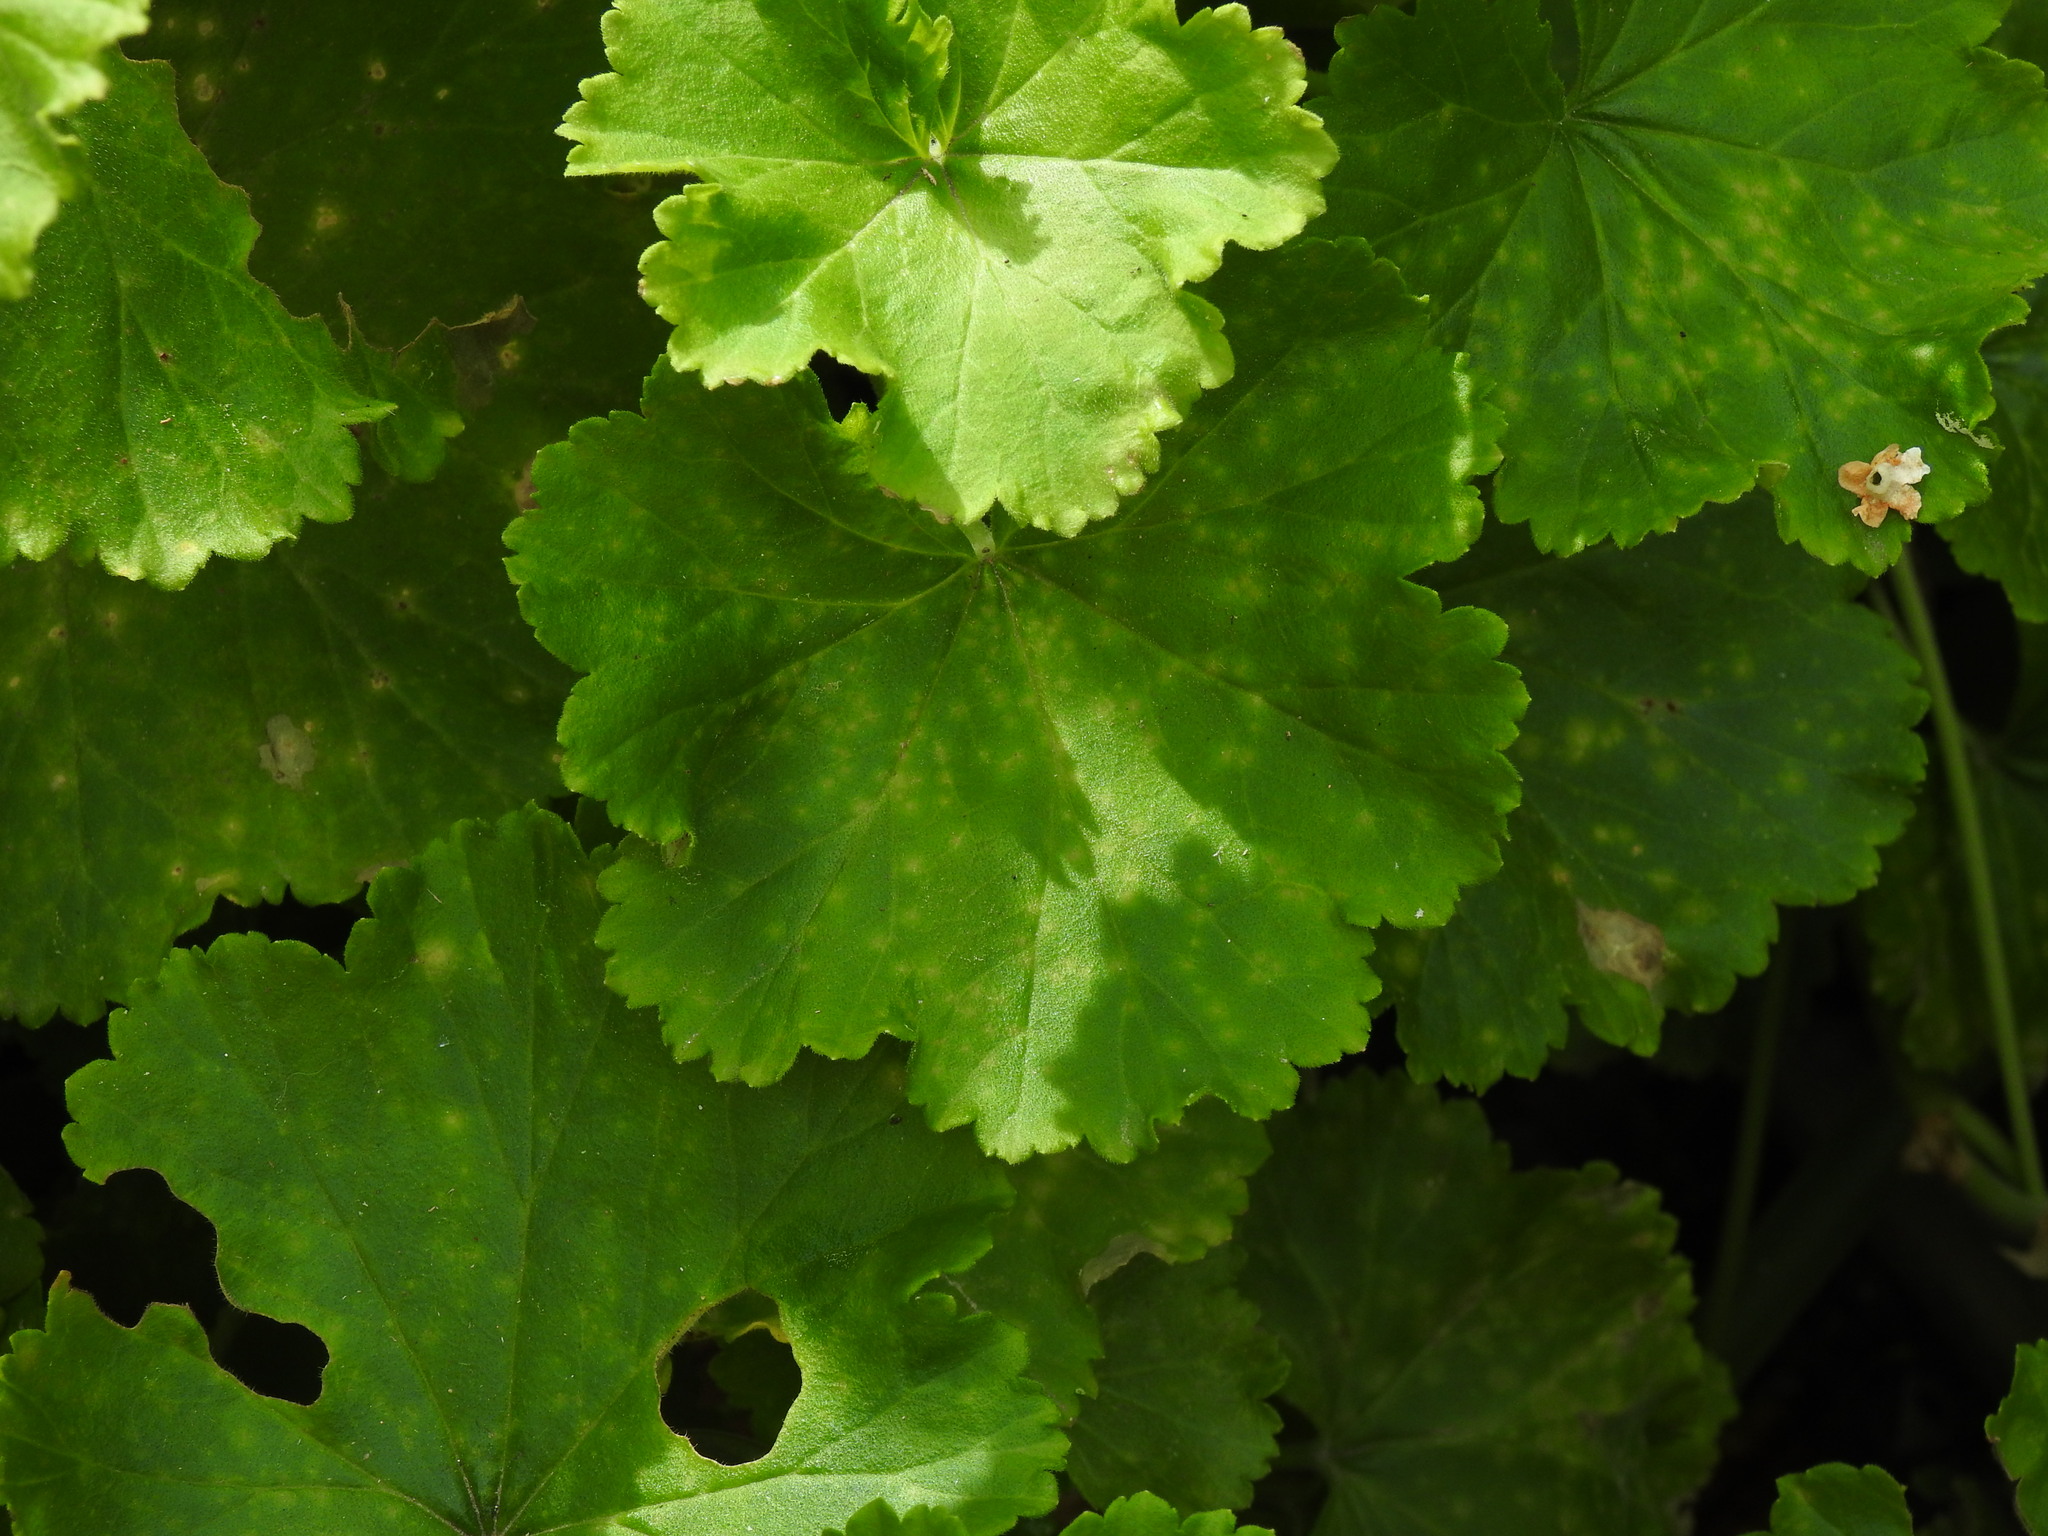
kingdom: Fungi
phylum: Basidiomycota
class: Pucciniomycetes
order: Pucciniales
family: Pucciniaceae
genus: Puccinia
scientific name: Puccinia pelargonii-zonalis
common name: Rust of pelargonium
